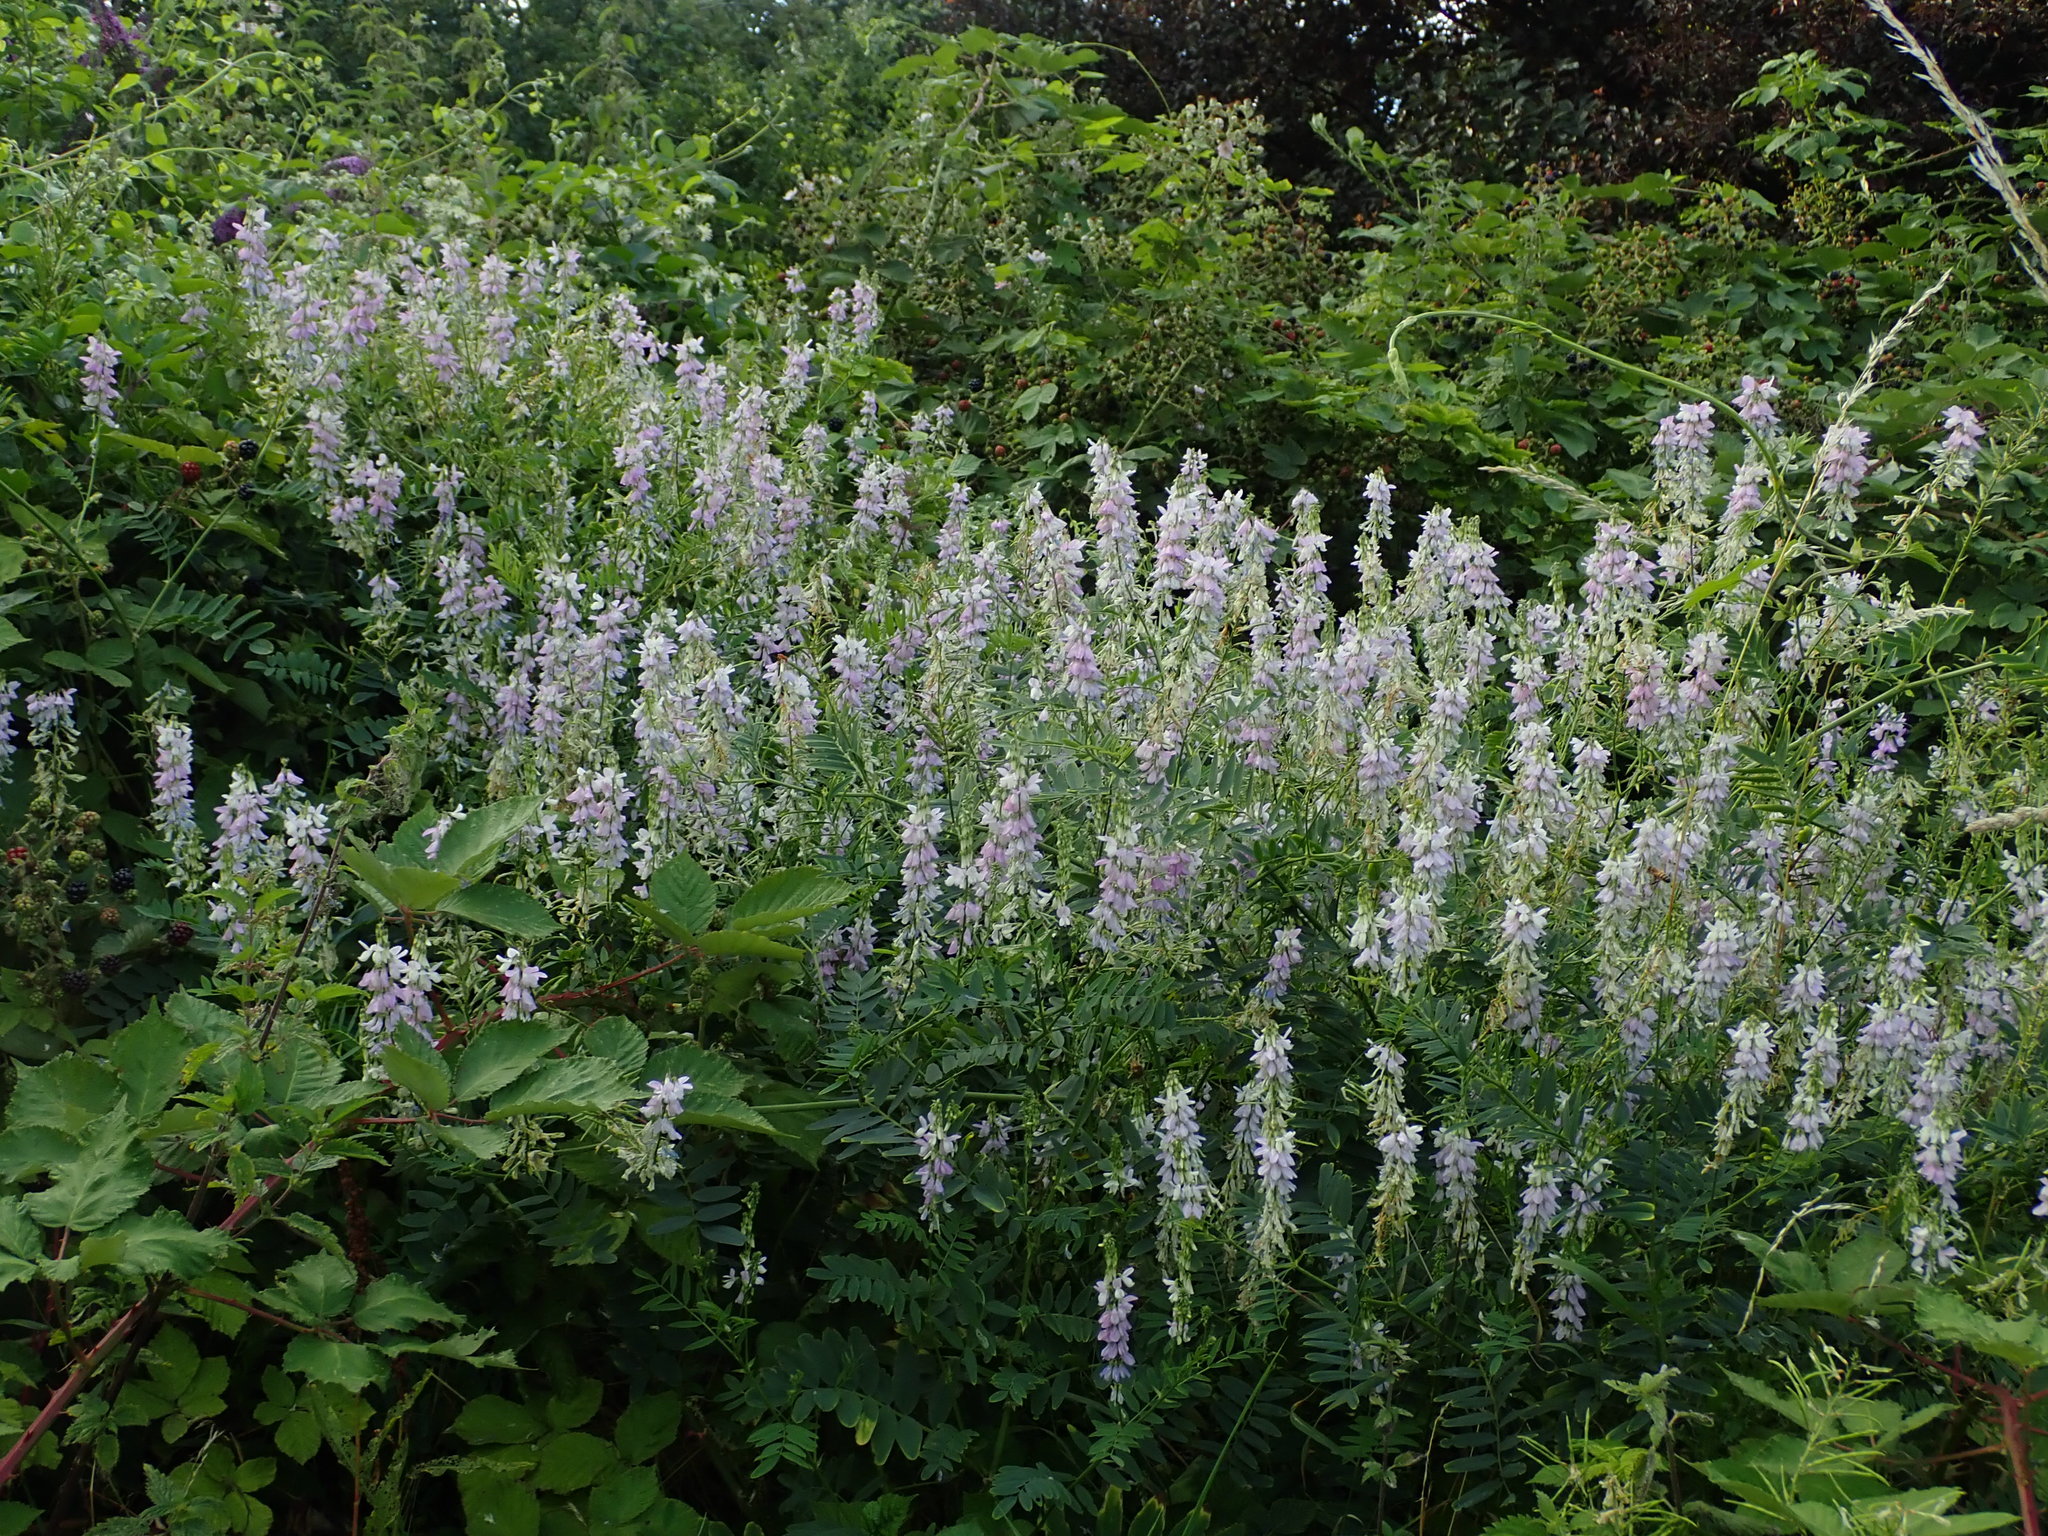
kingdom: Plantae
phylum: Tracheophyta
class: Magnoliopsida
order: Fabales
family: Fabaceae
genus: Galega
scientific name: Galega officinalis
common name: Goat's-rue
